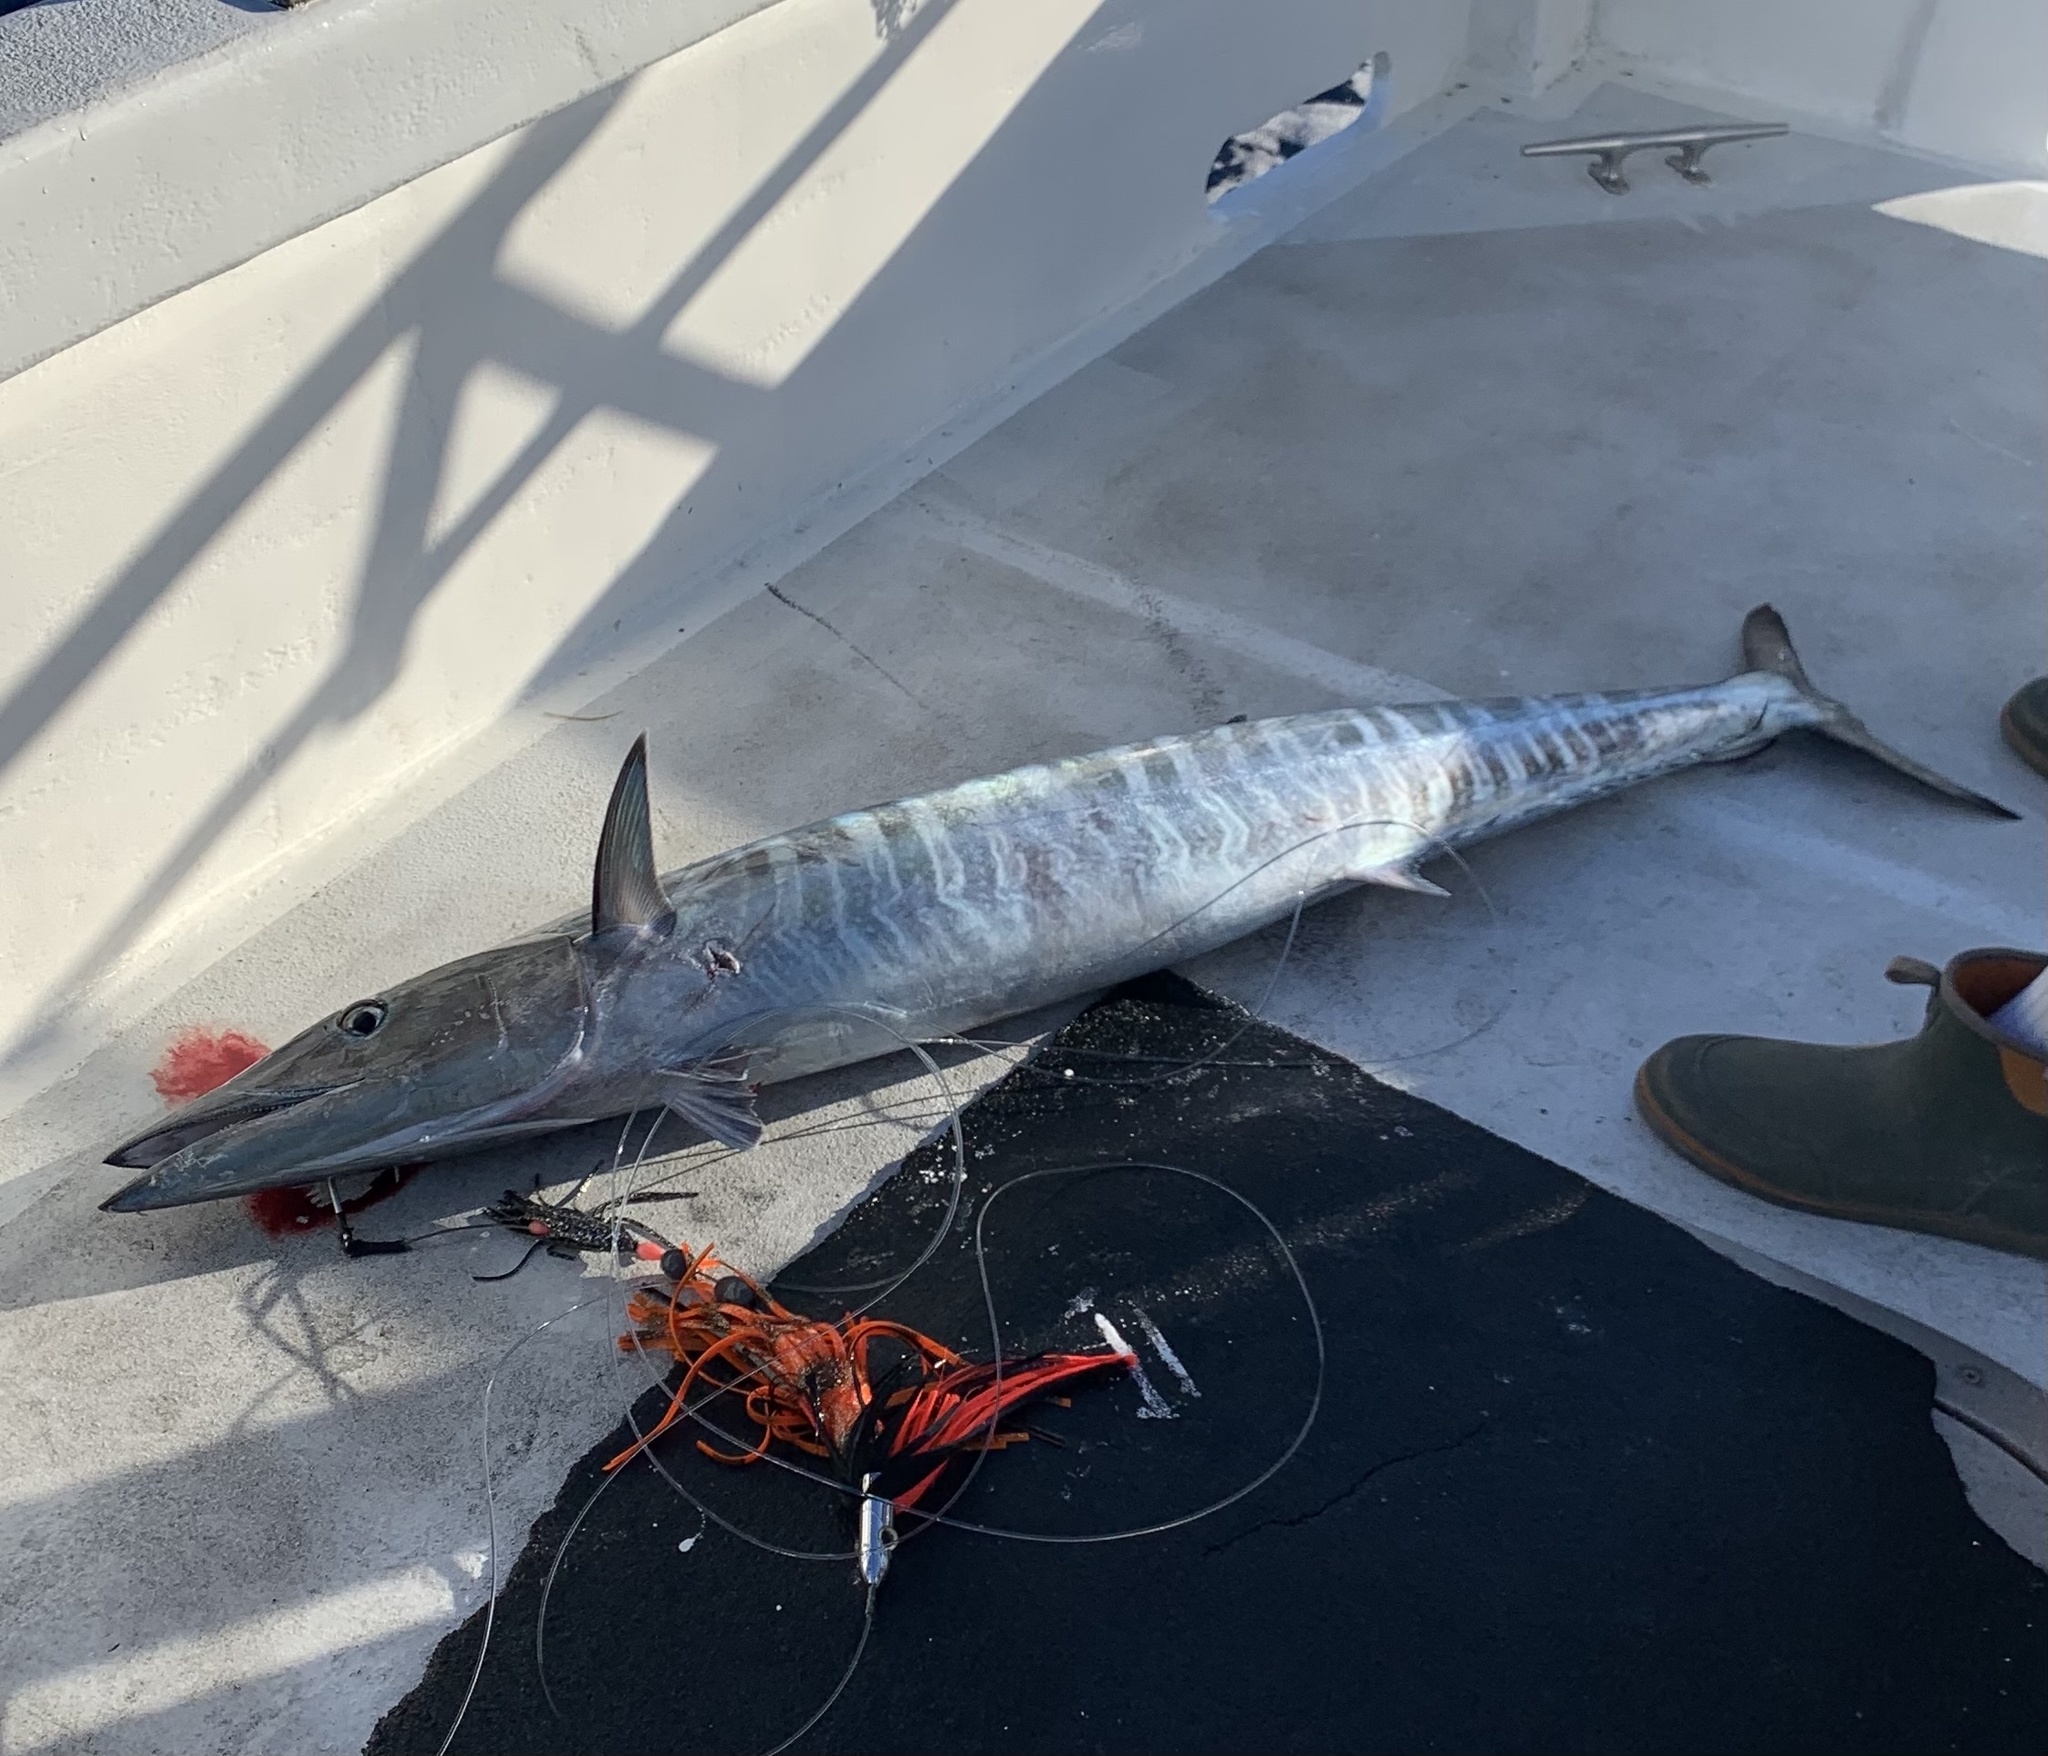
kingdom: Animalia
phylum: Chordata
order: Perciformes
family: Scombridae
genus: Acanthocybium
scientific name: Acanthocybium solandri
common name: Wahoo
